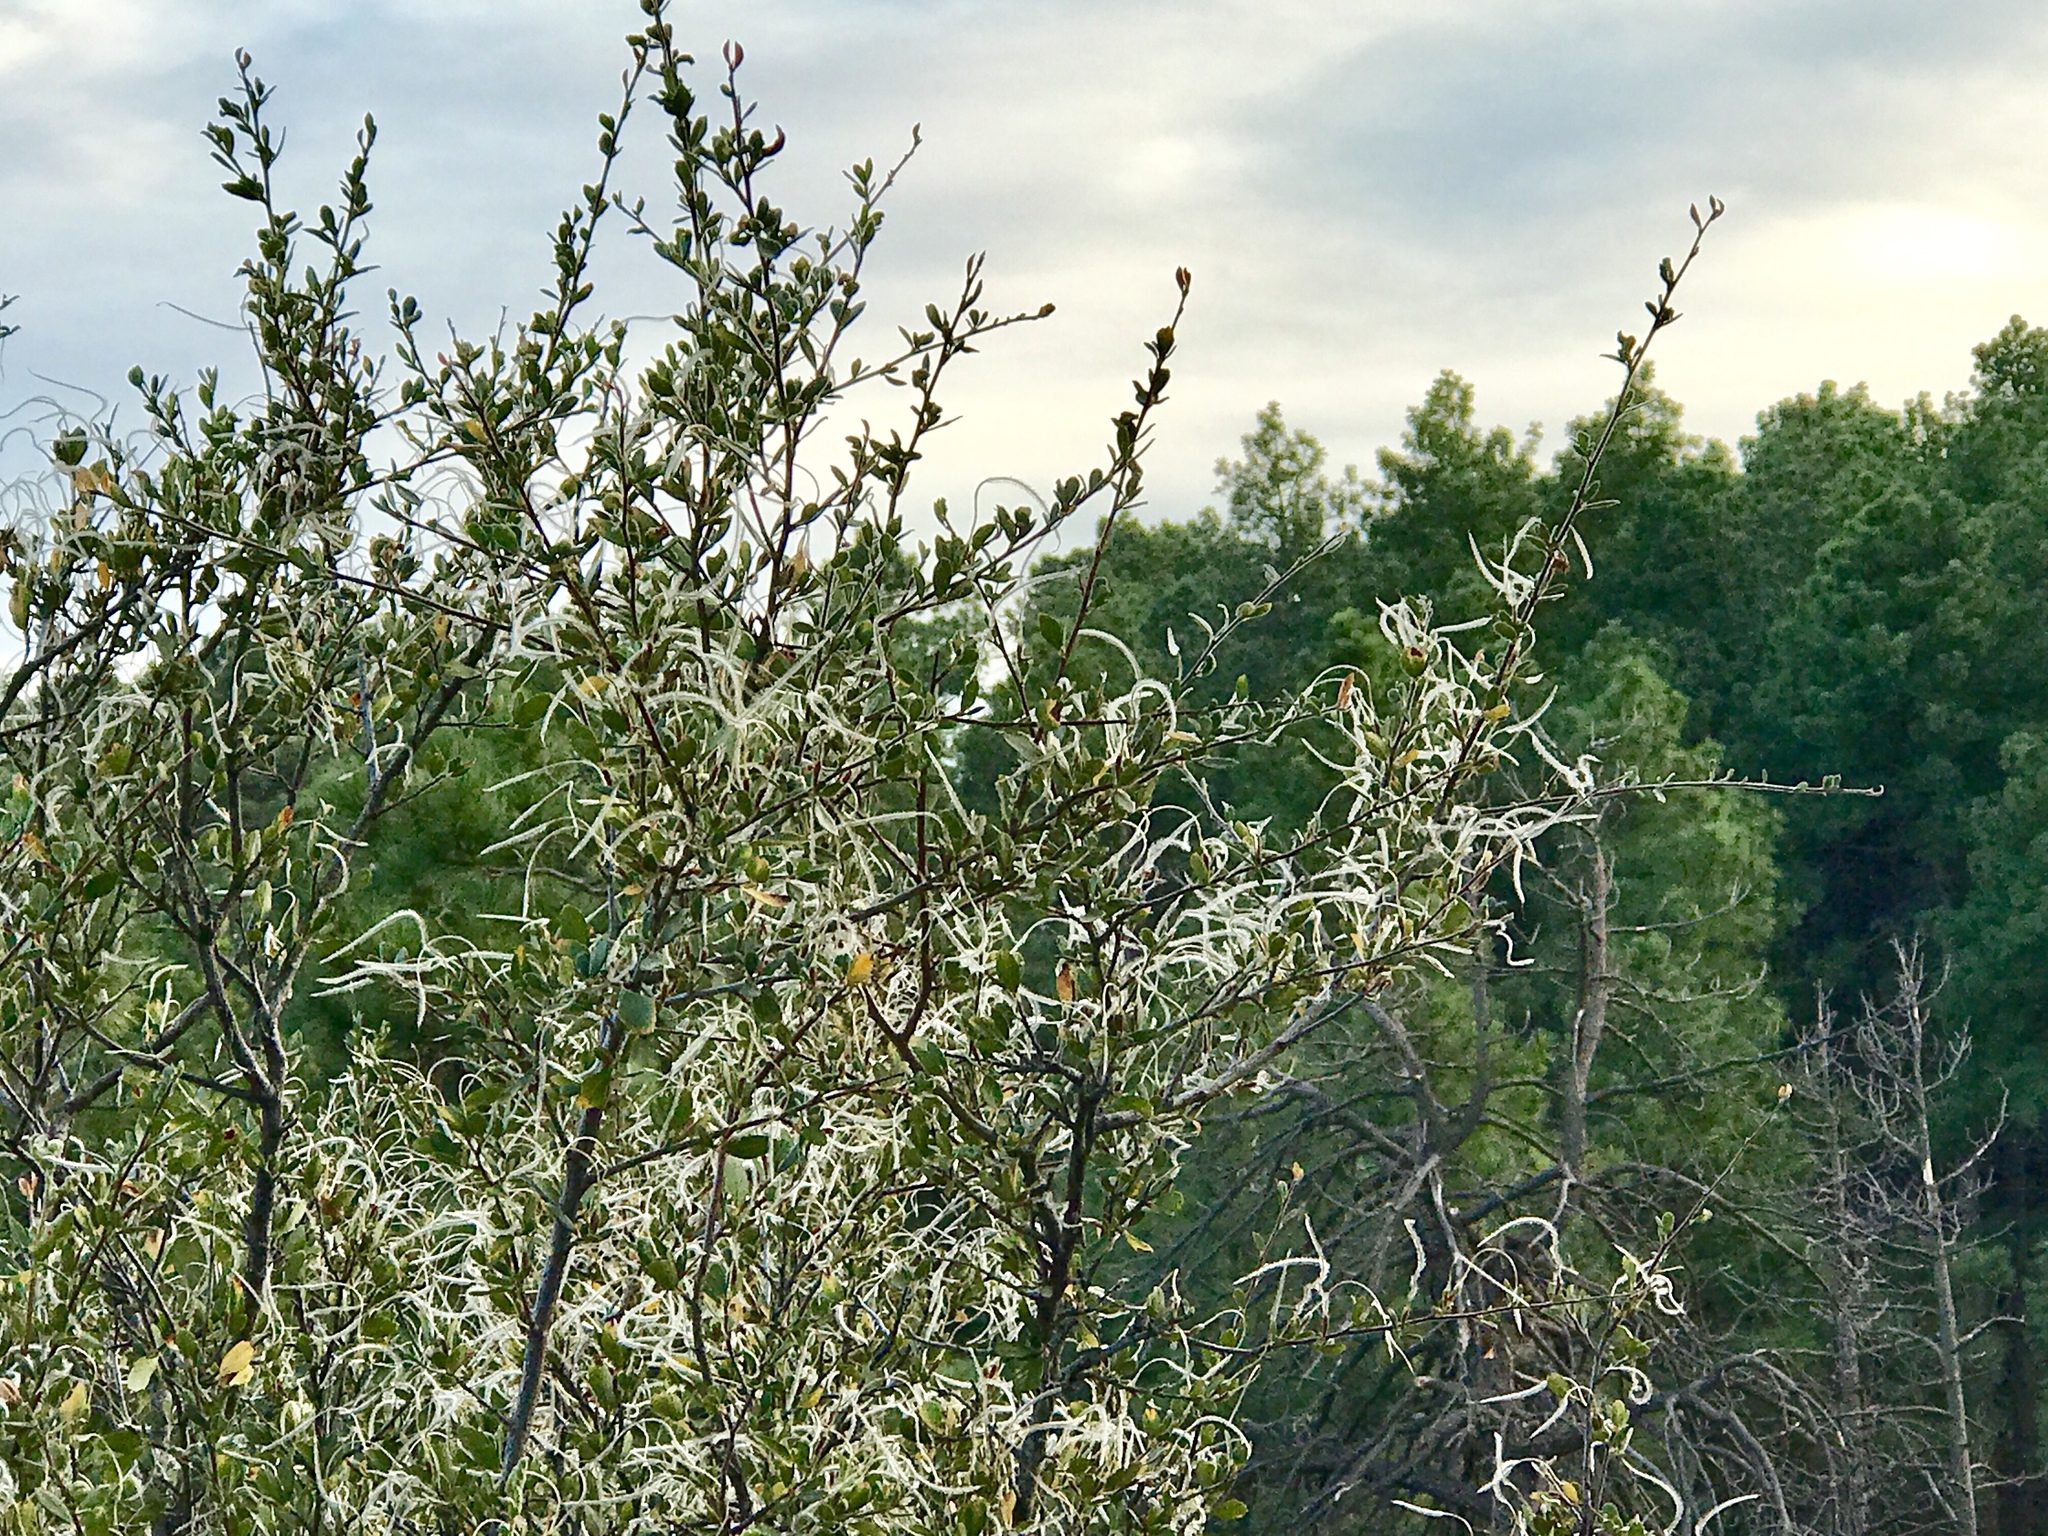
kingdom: Plantae
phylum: Tracheophyta
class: Magnoliopsida
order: Rosales
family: Rosaceae
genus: Cercocarpus
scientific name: Cercocarpus montanus
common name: Alder-leaf cercocarpus
